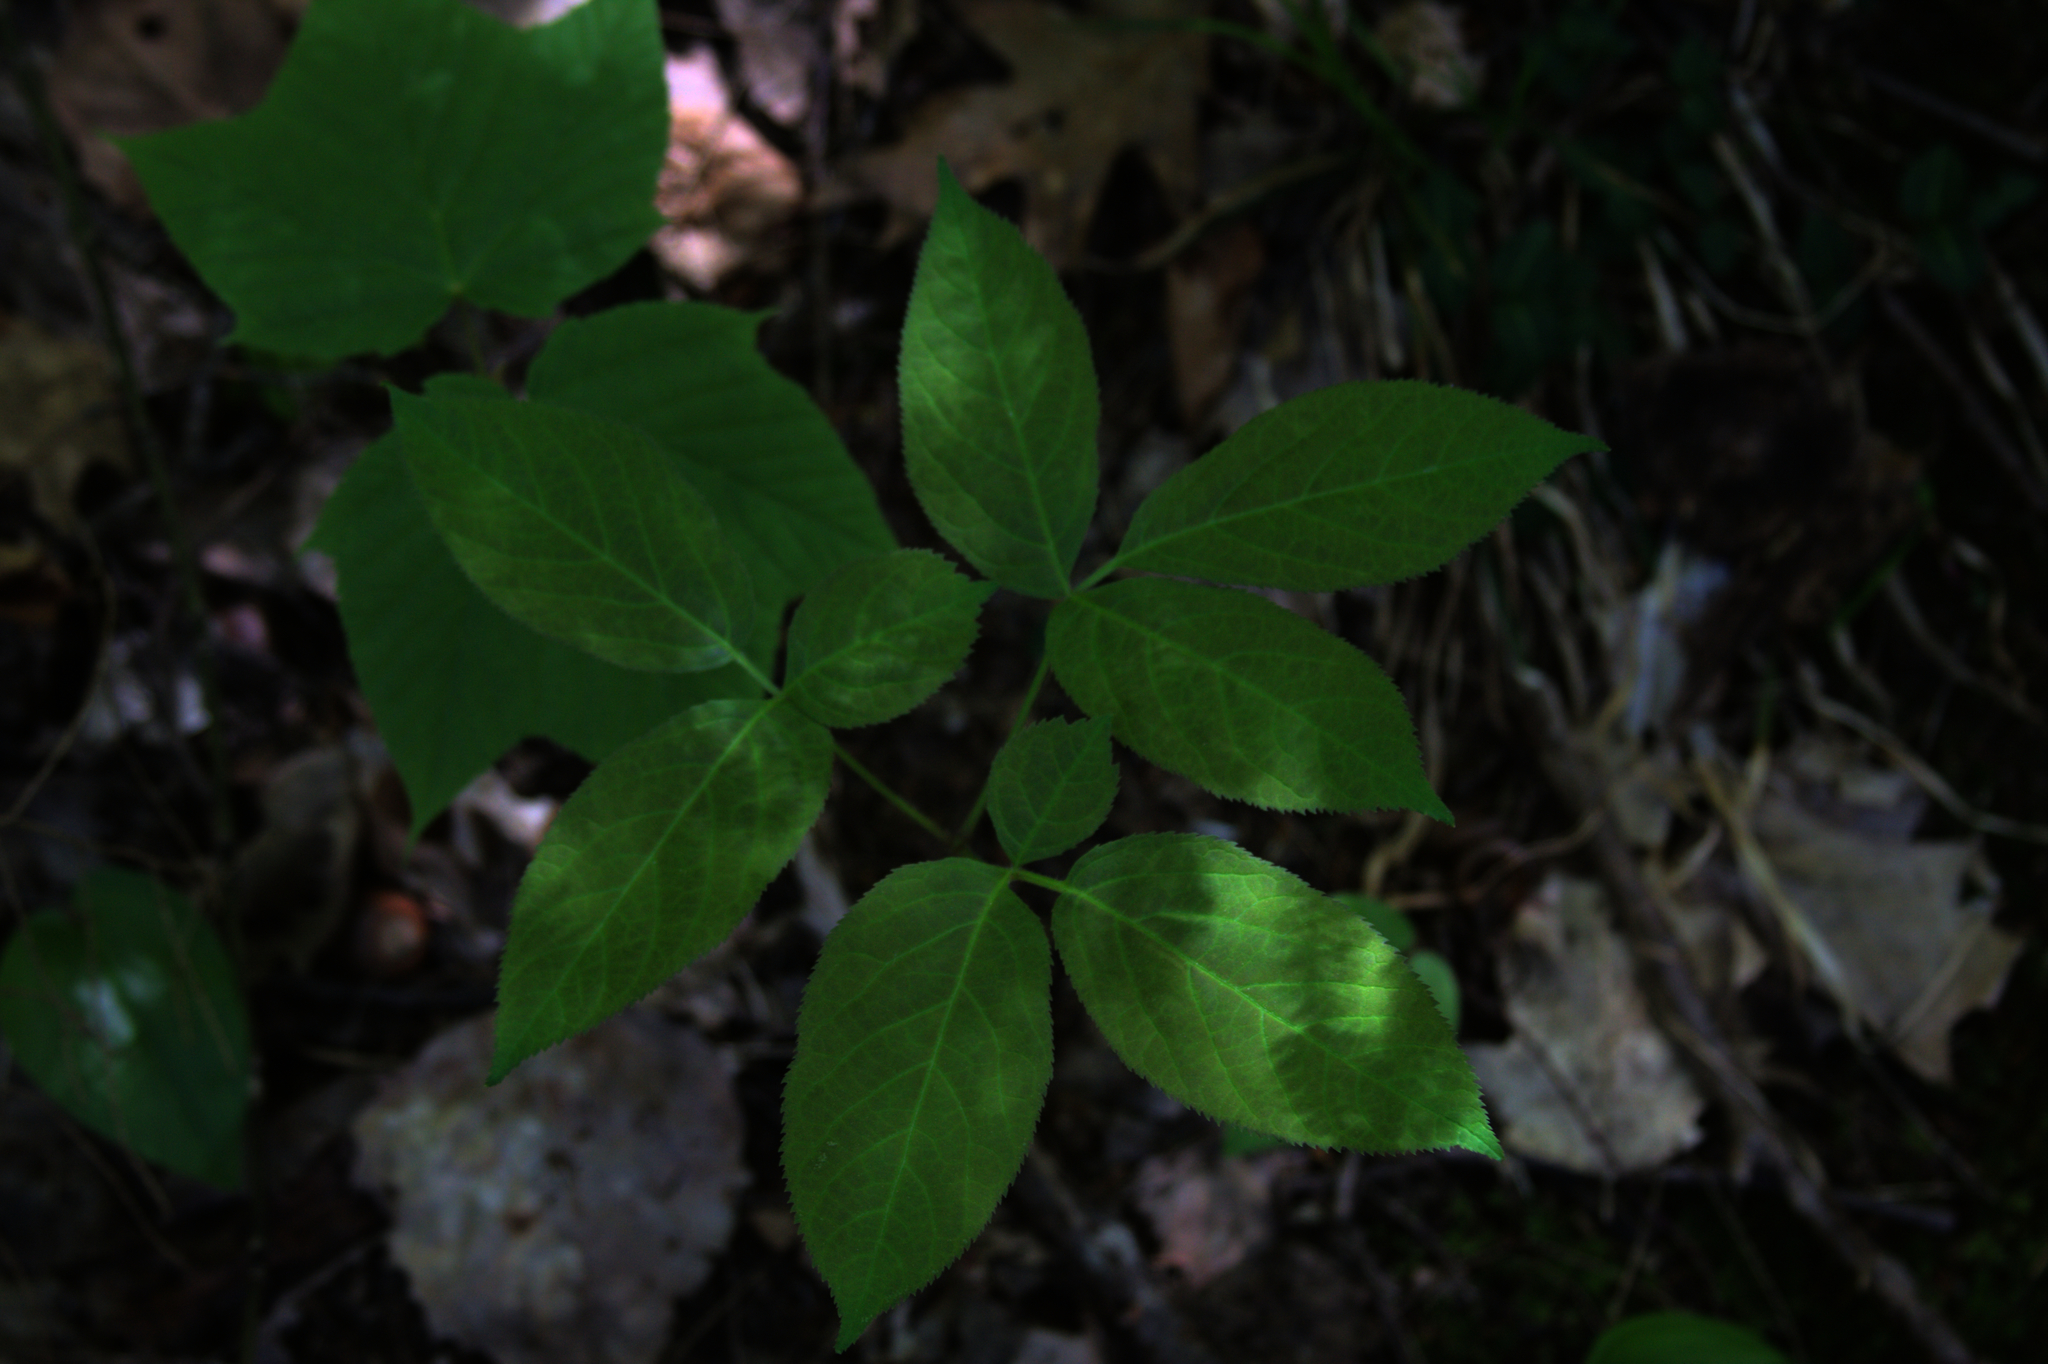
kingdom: Plantae
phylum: Tracheophyta
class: Magnoliopsida
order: Apiales
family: Araliaceae
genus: Aralia
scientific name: Aralia nudicaulis
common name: Wild sarsaparilla
